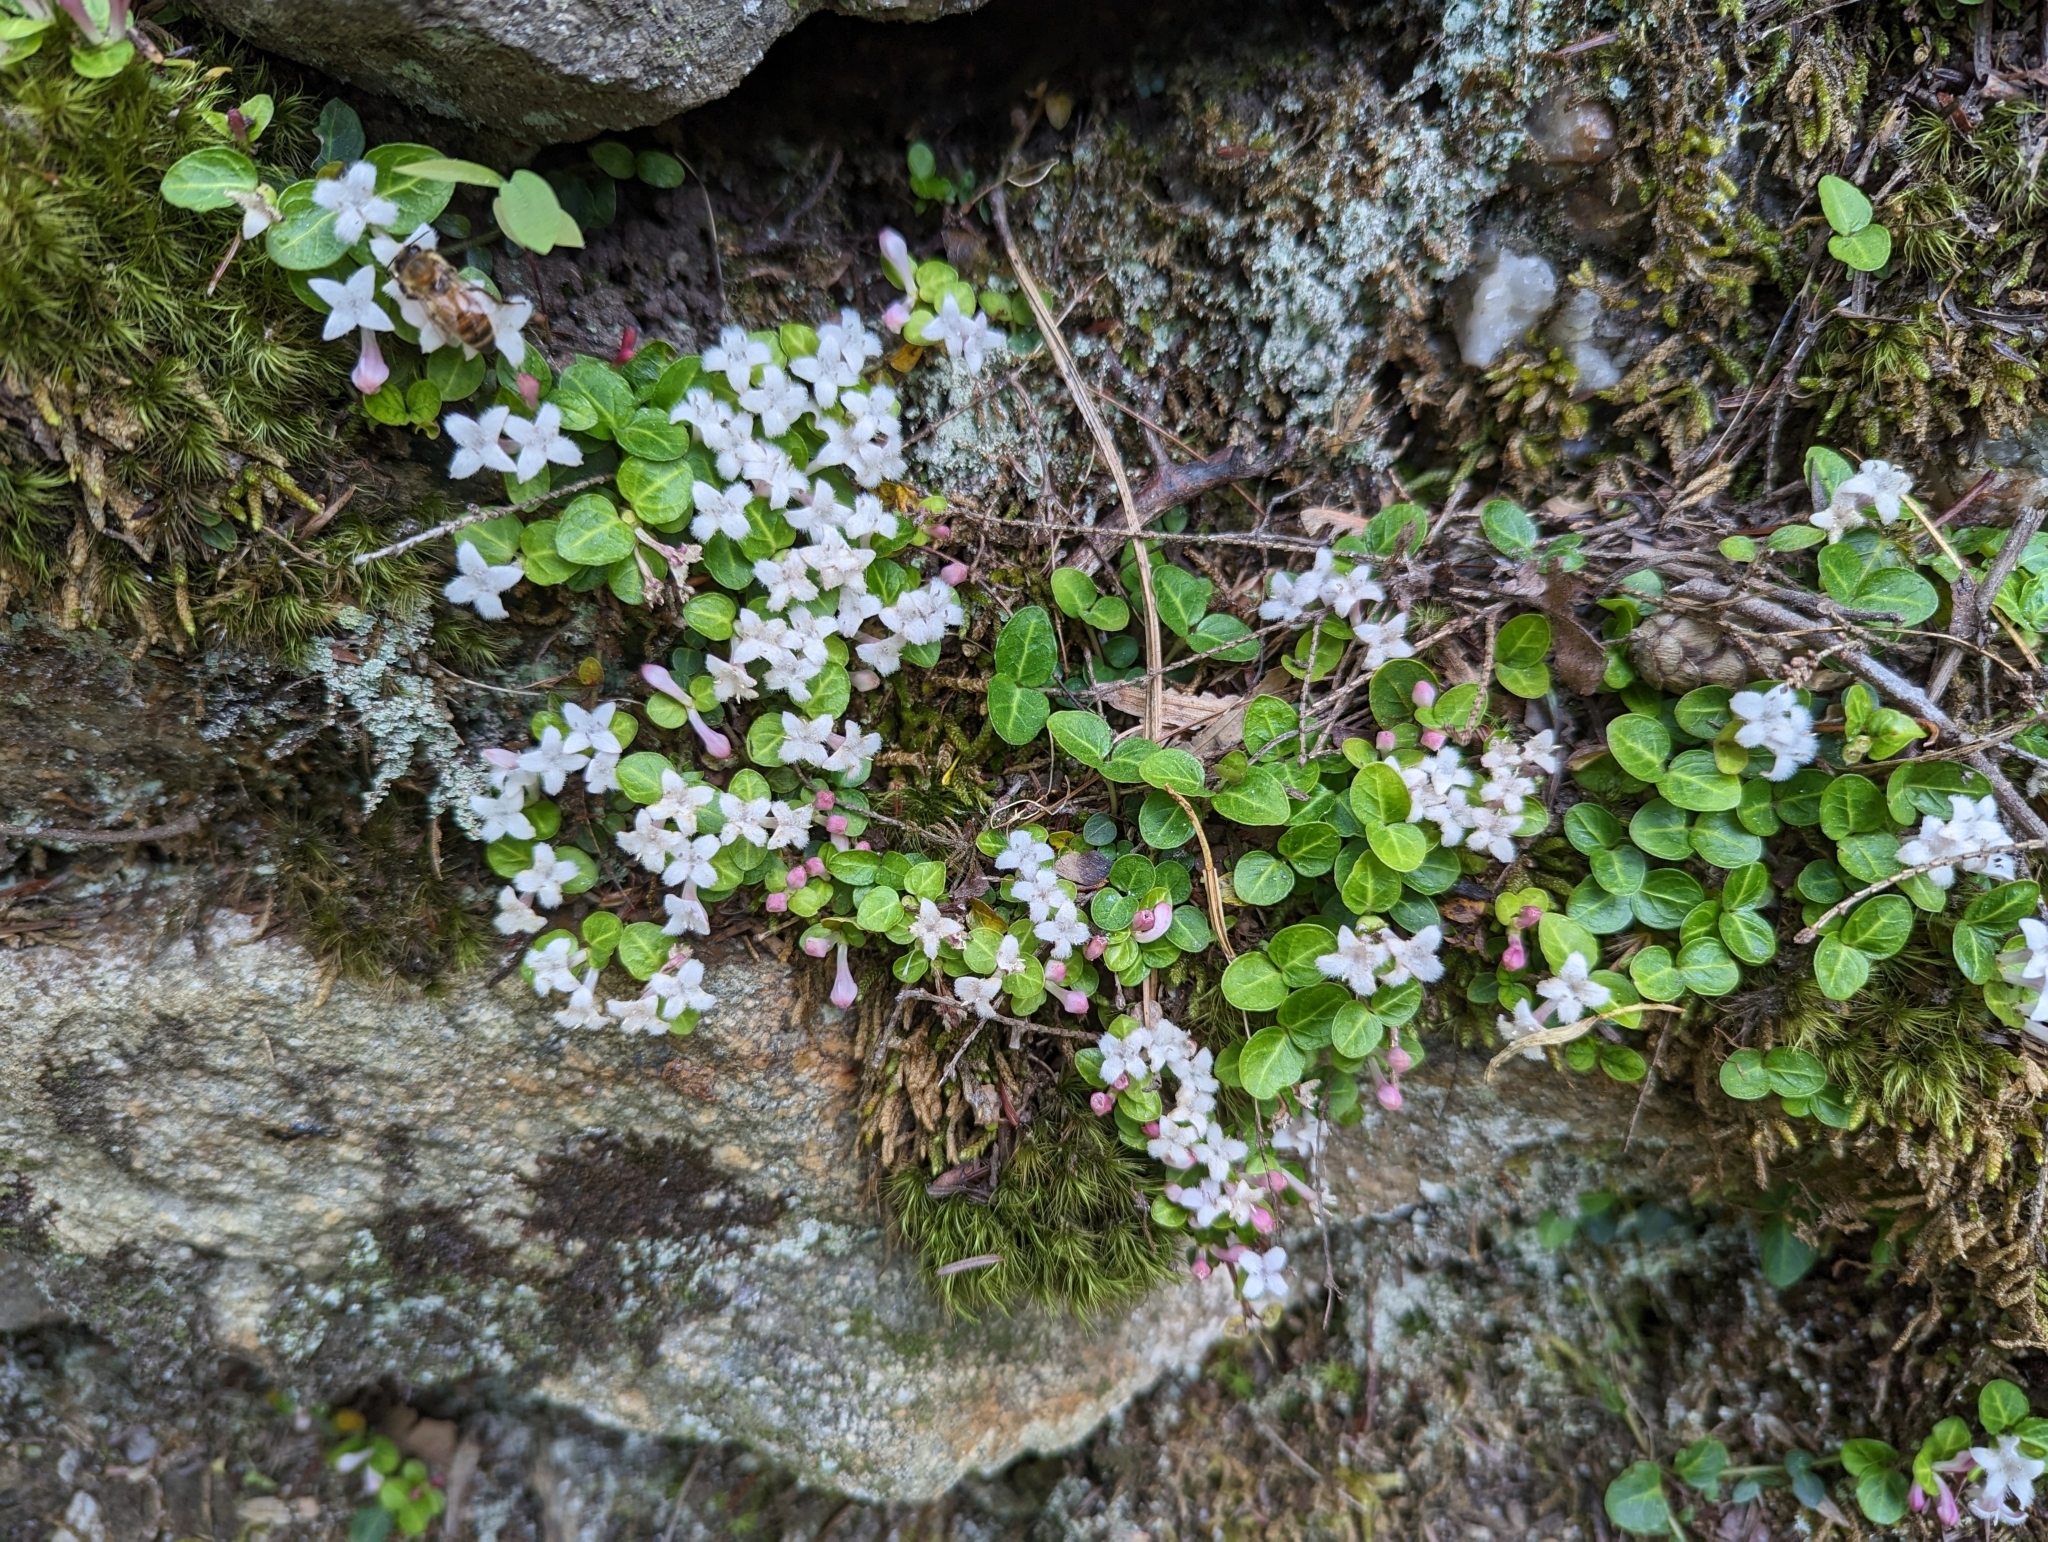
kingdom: Plantae
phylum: Tracheophyta
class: Magnoliopsida
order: Gentianales
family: Rubiaceae
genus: Mitchella
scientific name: Mitchella repens
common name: Partridge-berry
